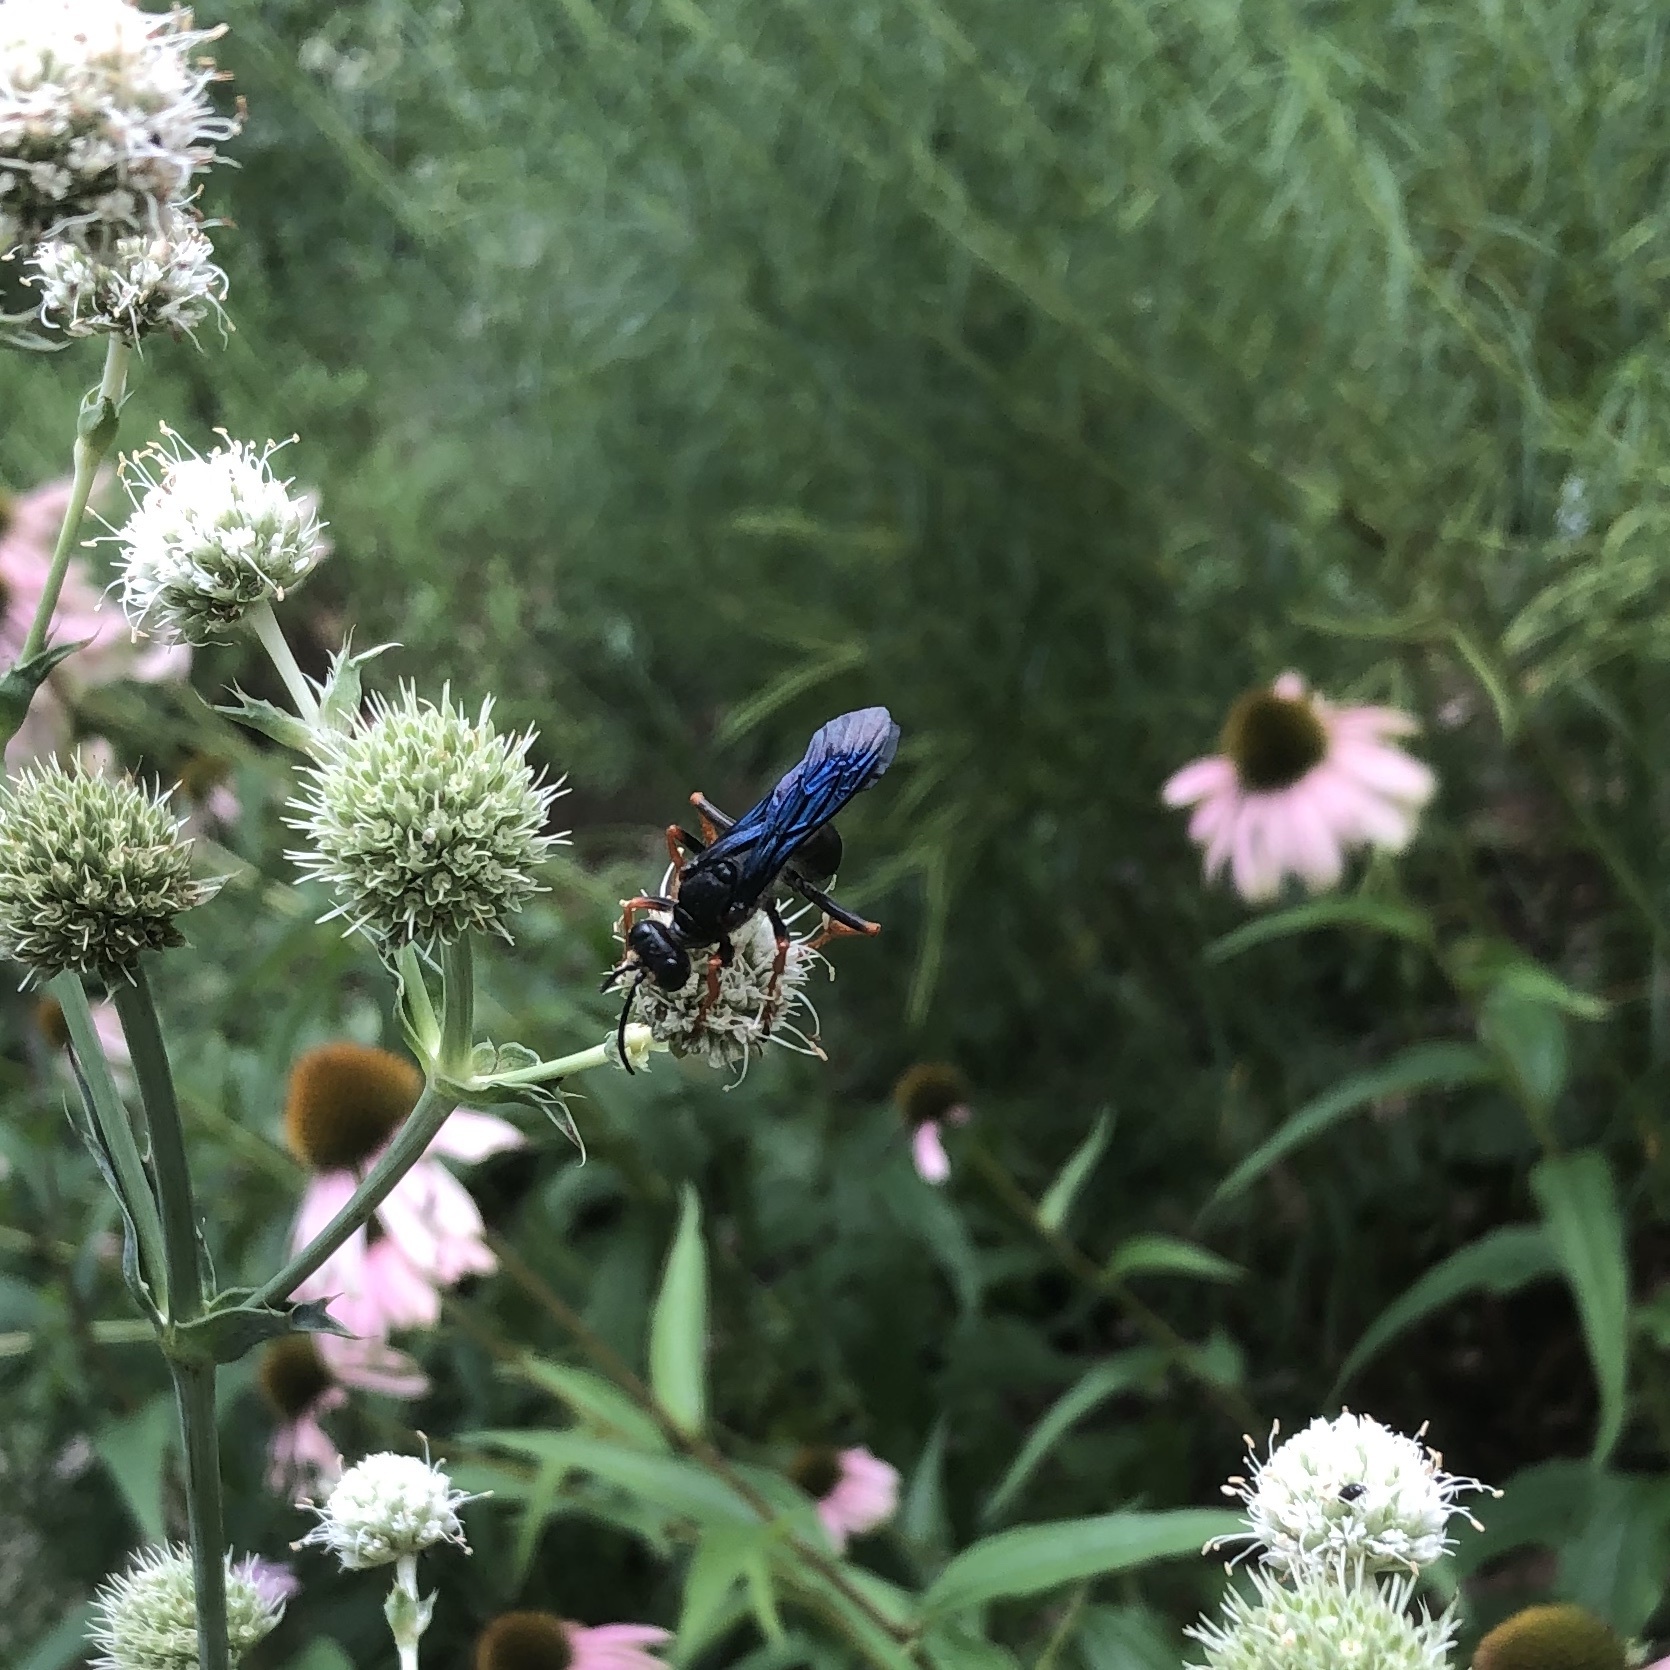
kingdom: Animalia
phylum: Arthropoda
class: Insecta
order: Hymenoptera
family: Sphecidae
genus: Sphex
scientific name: Sphex nudus
